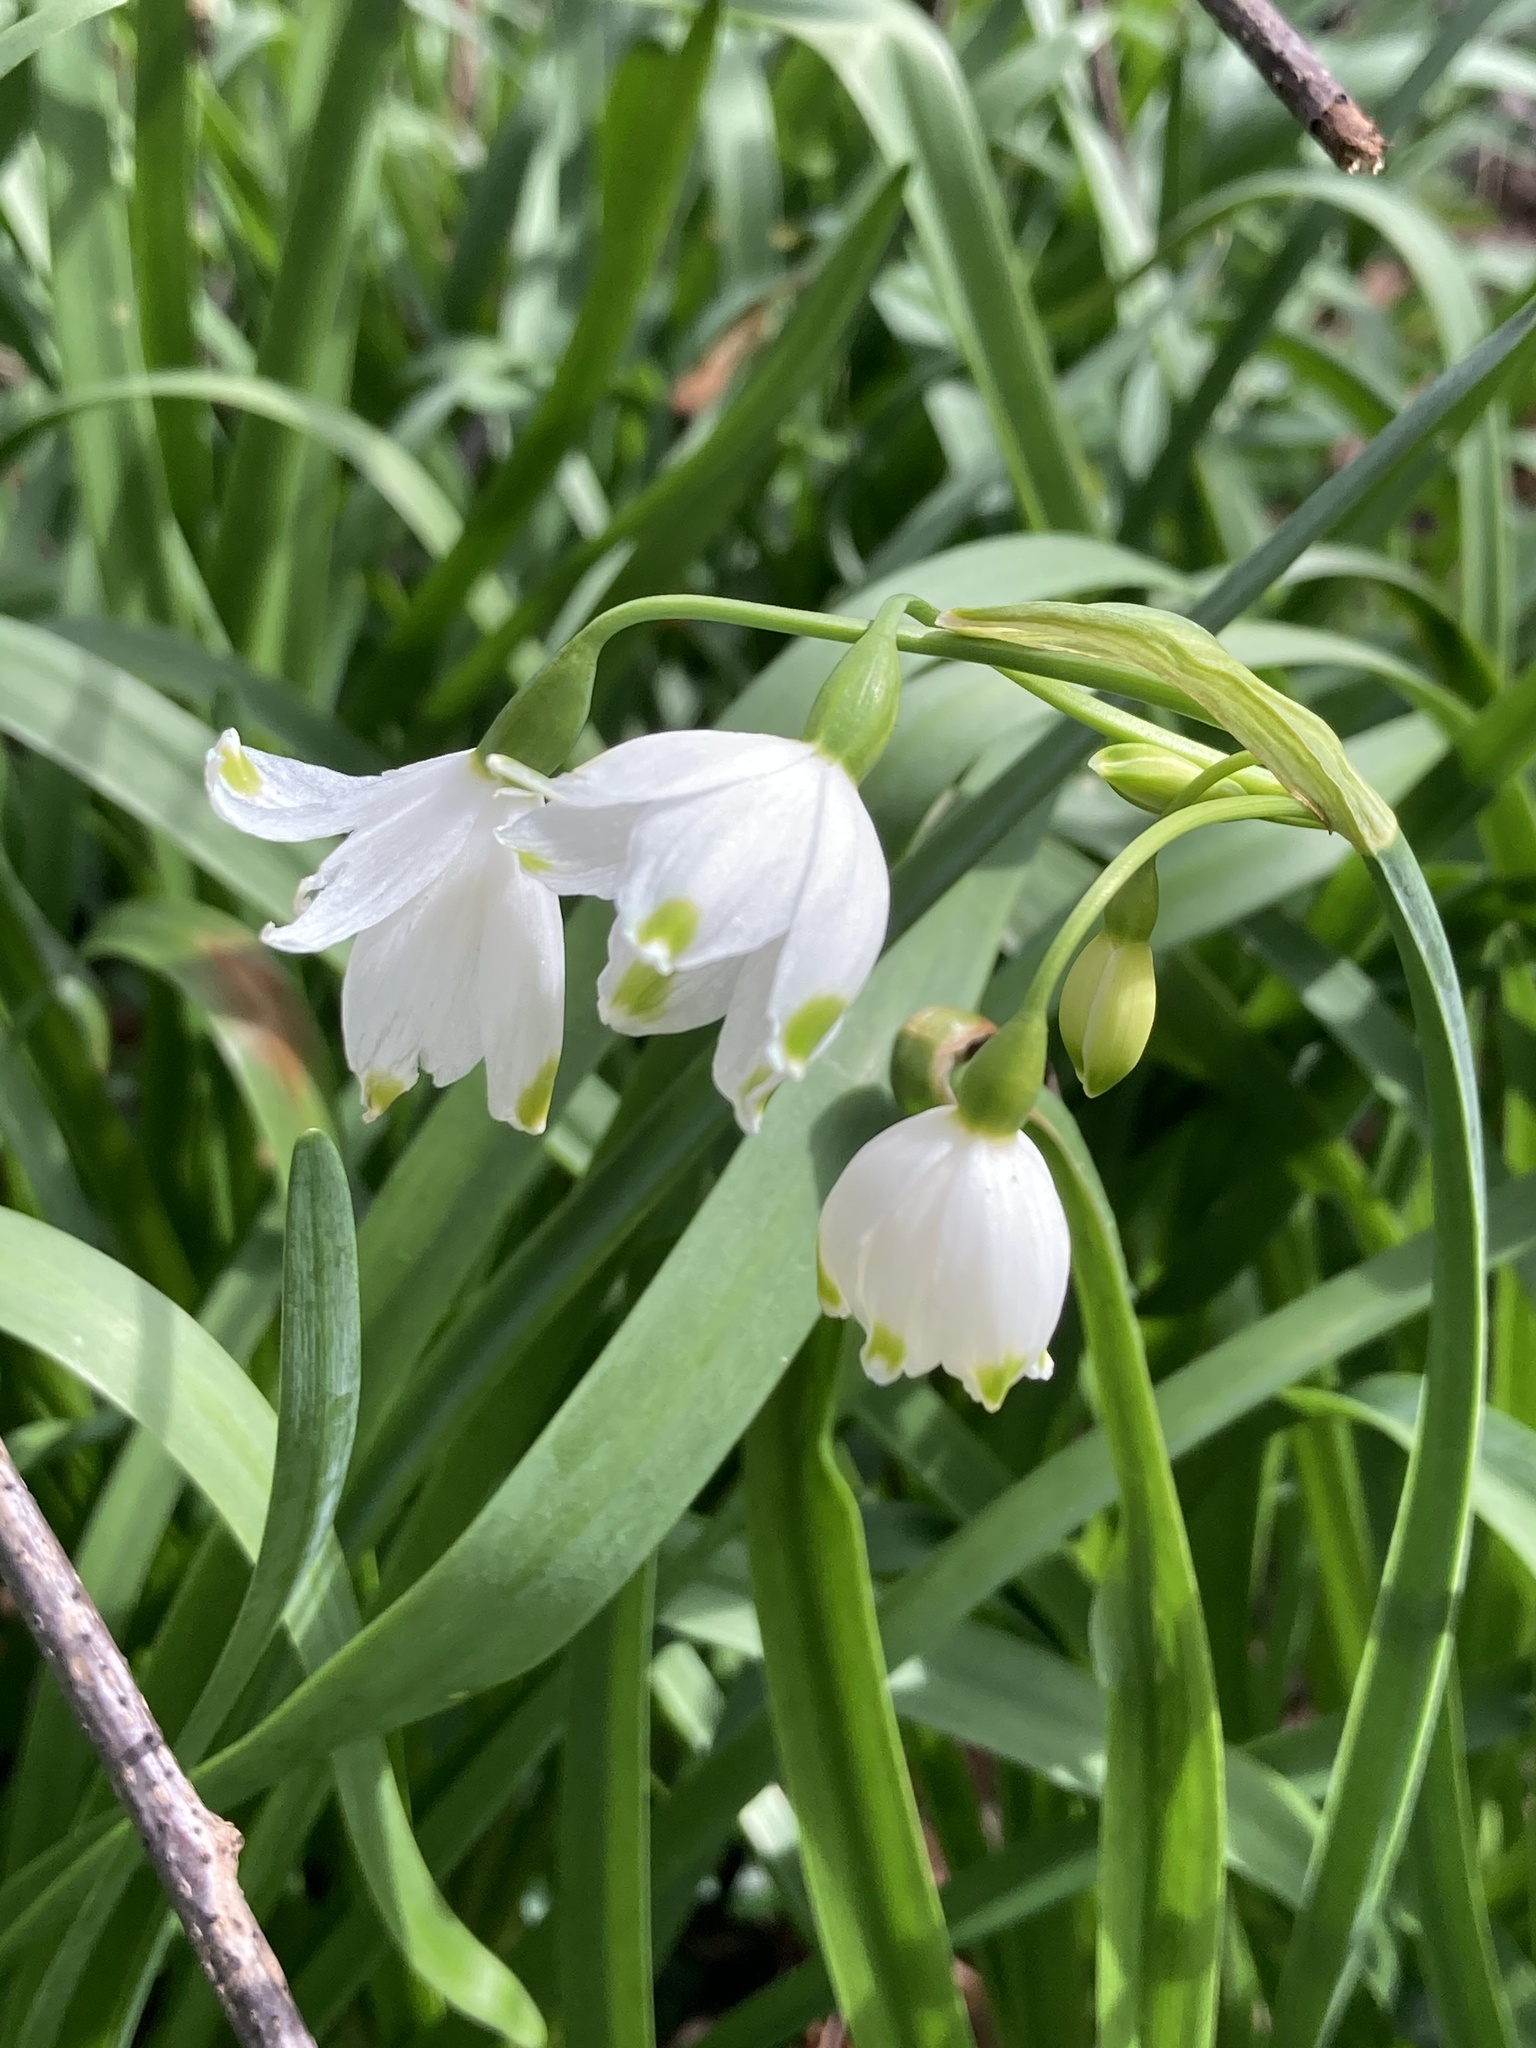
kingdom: Plantae
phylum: Tracheophyta
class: Liliopsida
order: Asparagales
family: Amaryllidaceae
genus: Leucojum
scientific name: Leucojum aestivum
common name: Summer snowflake
